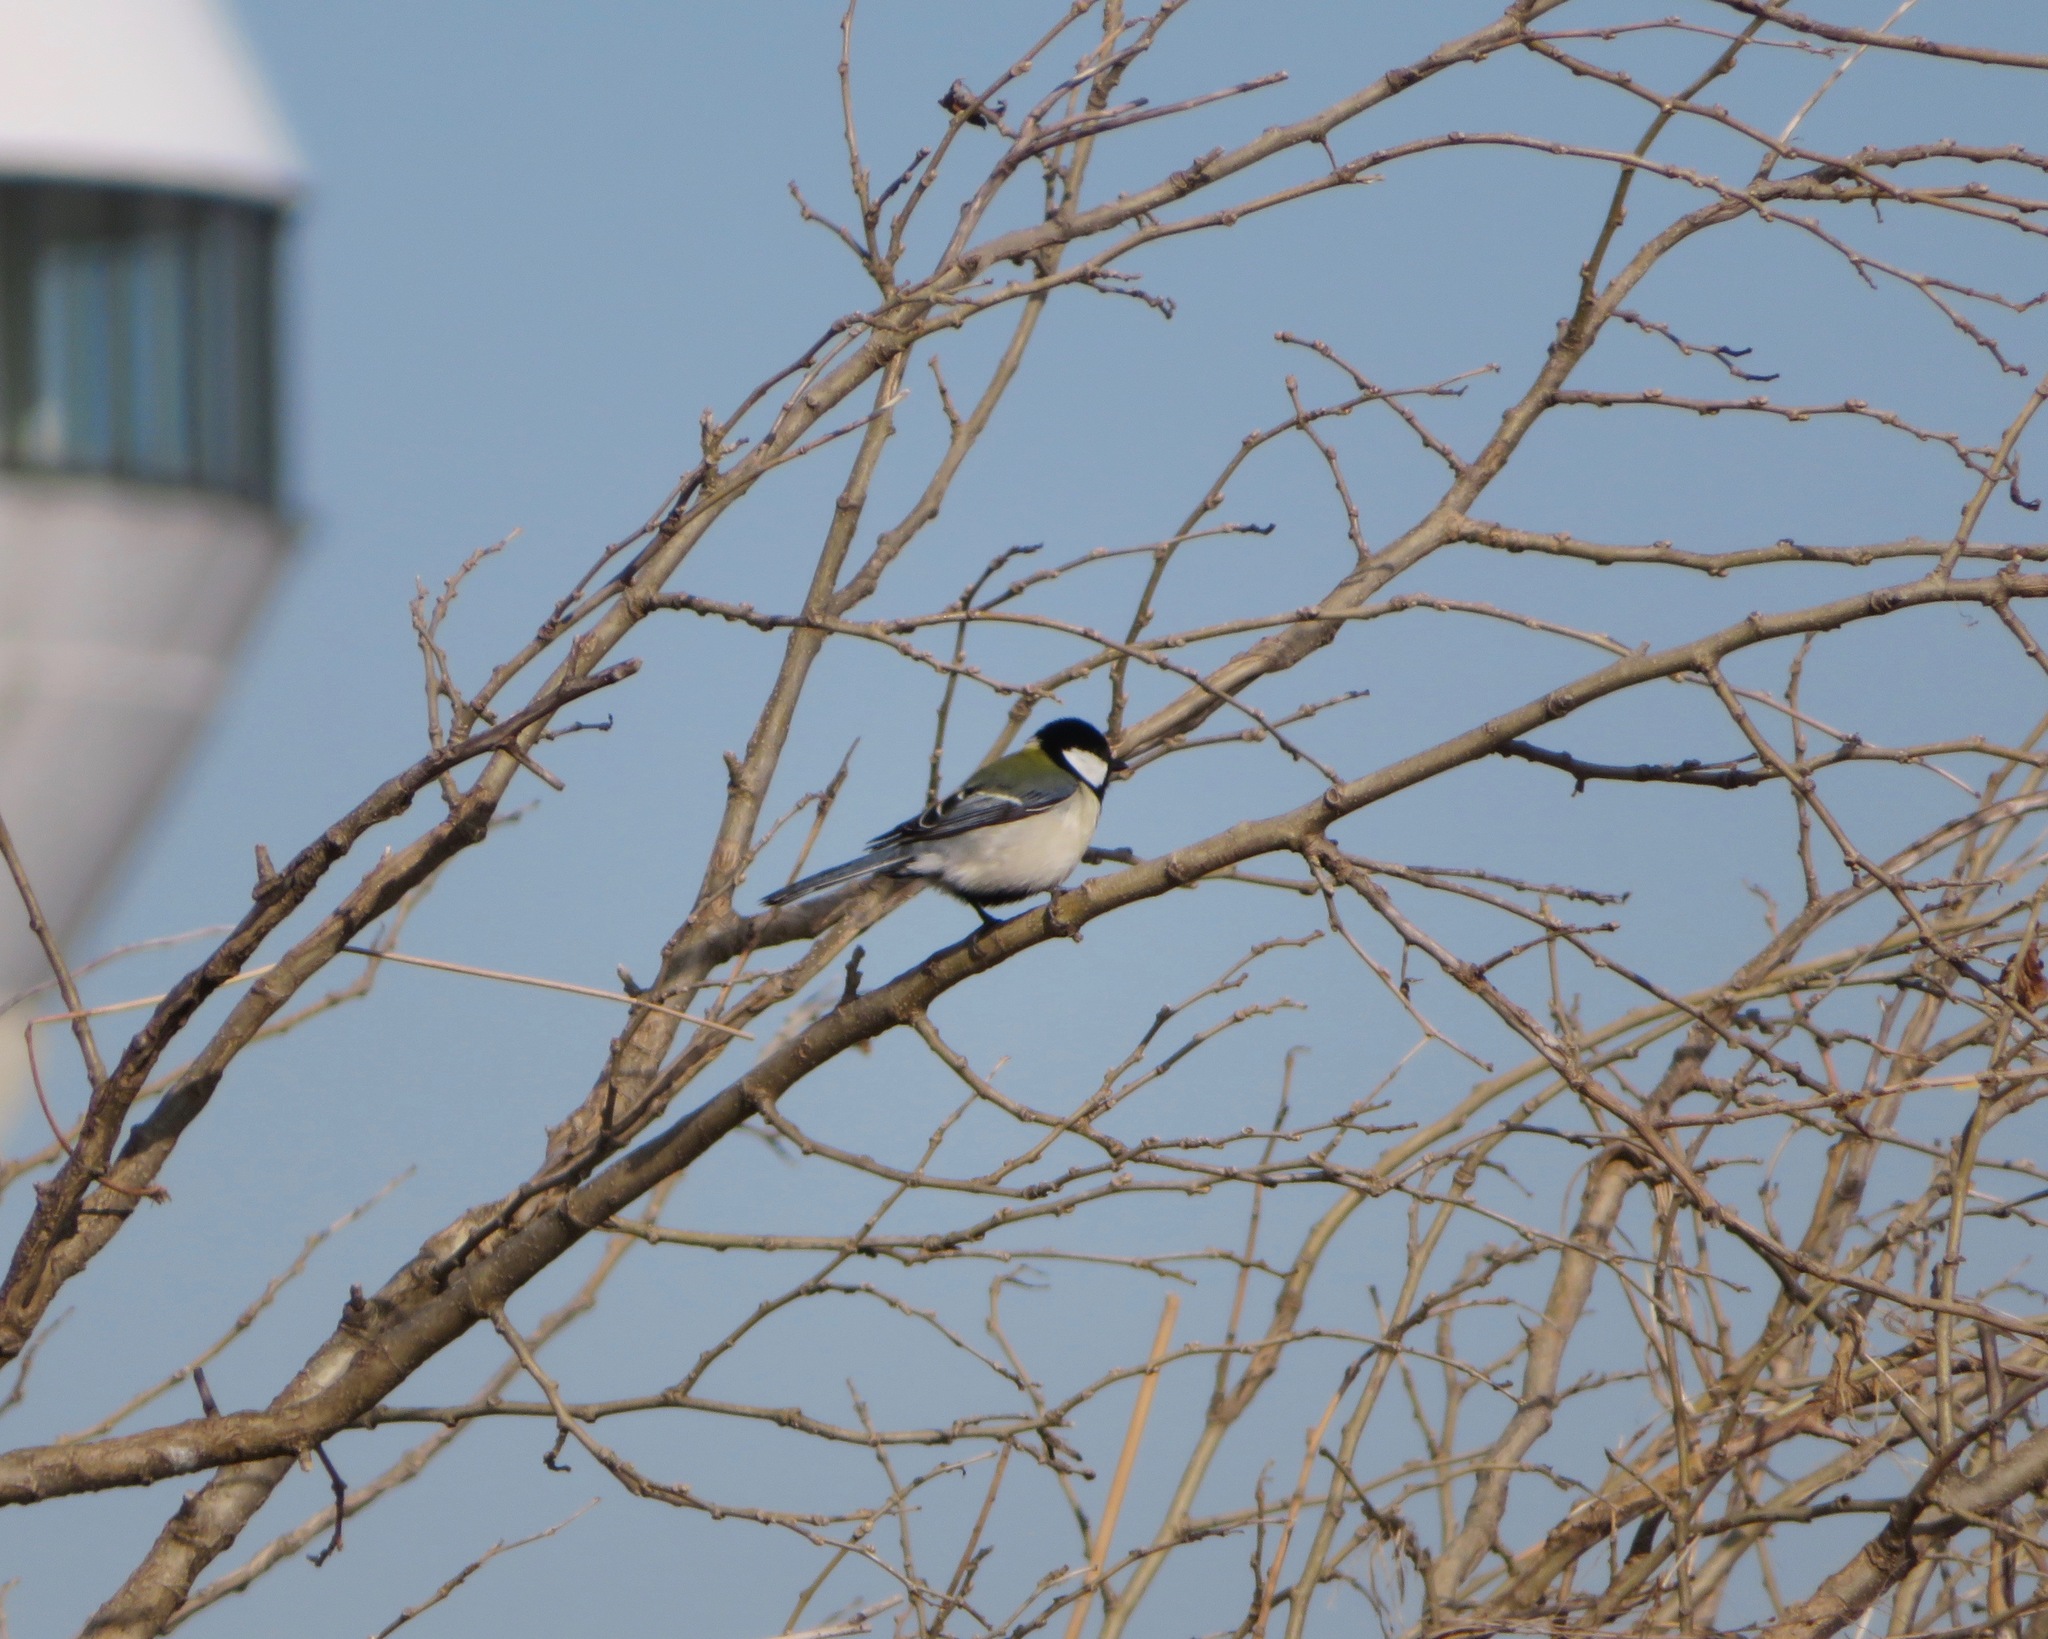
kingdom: Animalia
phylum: Chordata
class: Aves
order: Passeriformes
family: Paridae
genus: Parus
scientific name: Parus minor
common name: Japanese tit
